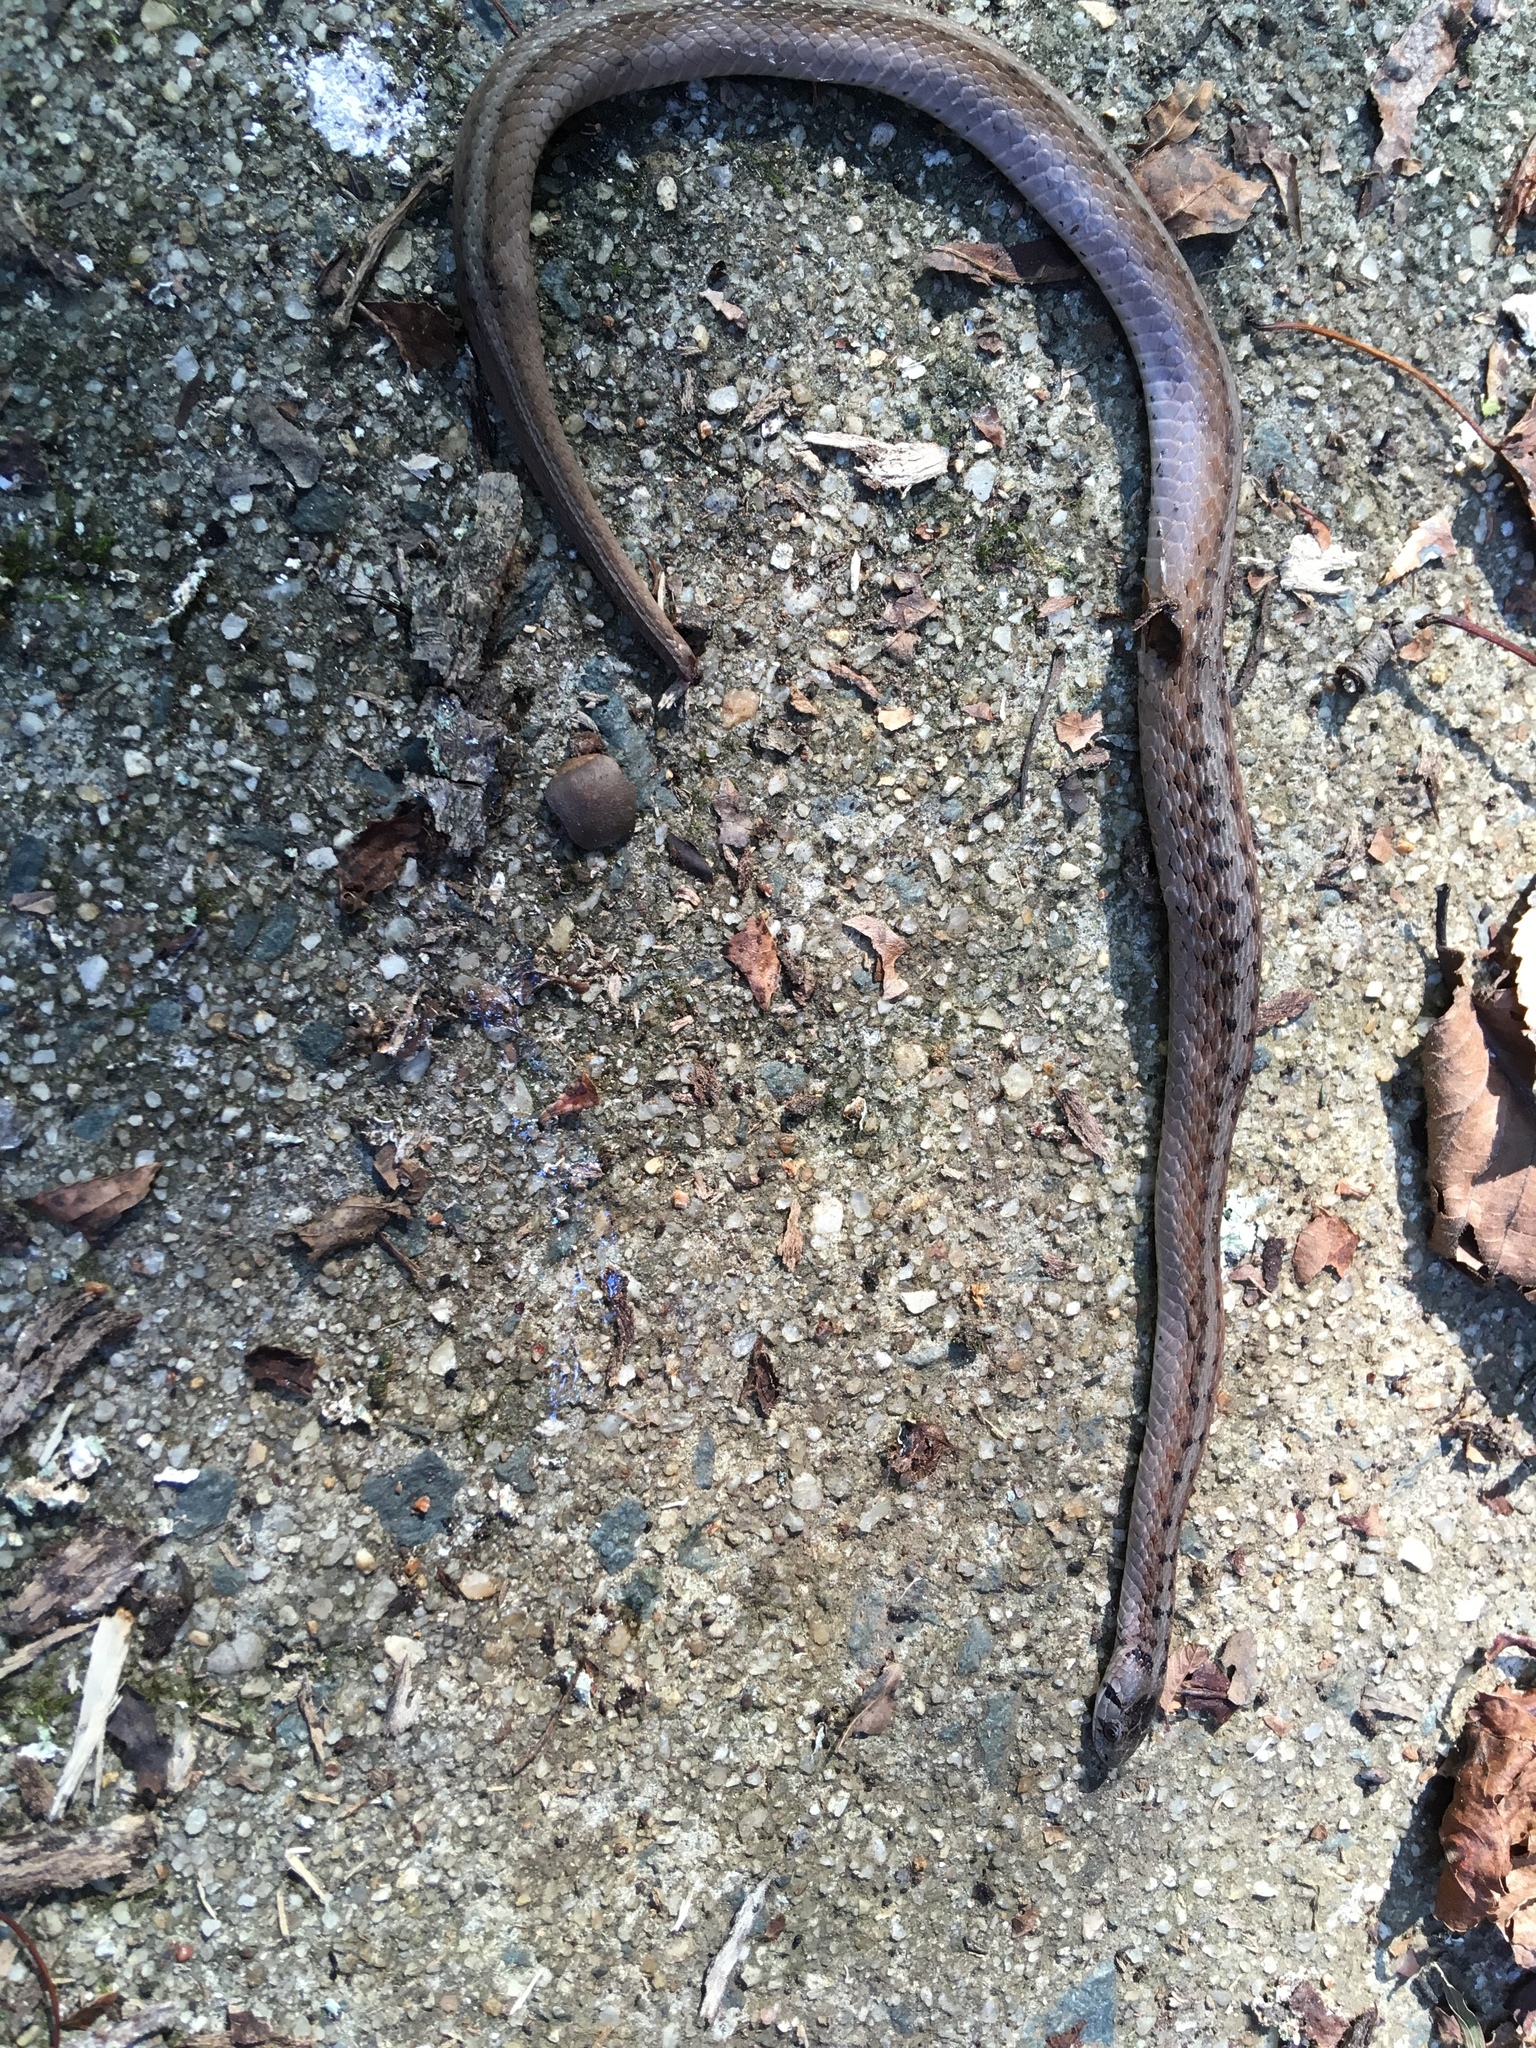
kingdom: Animalia
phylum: Chordata
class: Squamata
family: Colubridae
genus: Storeria
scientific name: Storeria dekayi
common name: (dekay’s) brown snake
